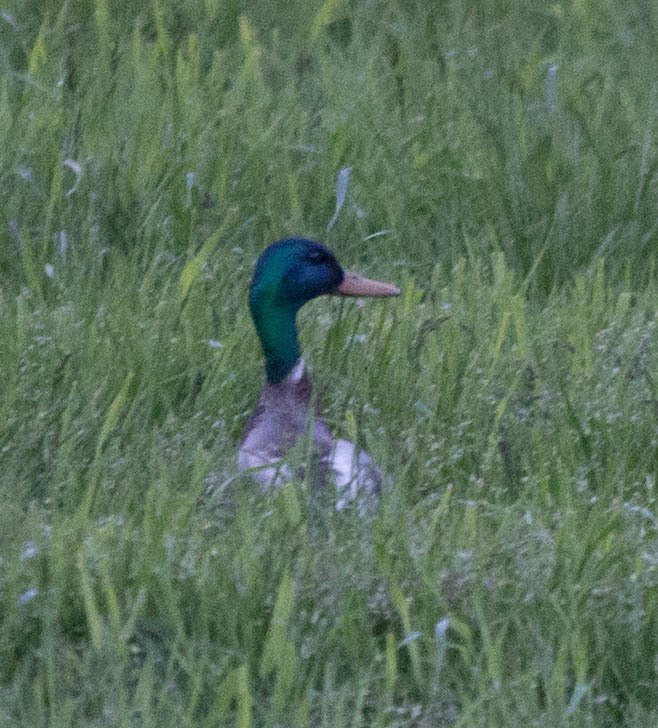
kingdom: Animalia
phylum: Chordata
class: Aves
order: Anseriformes
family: Anatidae
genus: Anas
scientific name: Anas platyrhynchos
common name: Mallard
